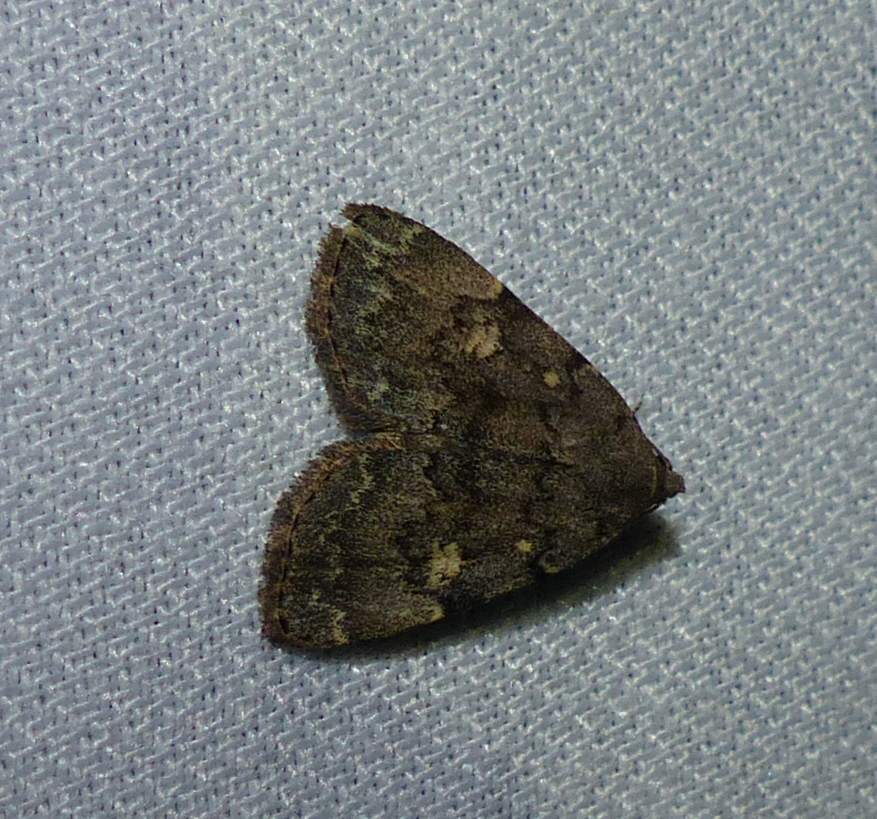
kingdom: Animalia
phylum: Arthropoda
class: Insecta
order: Lepidoptera
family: Erebidae
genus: Idia
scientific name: Idia aemula
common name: Common idia moth
